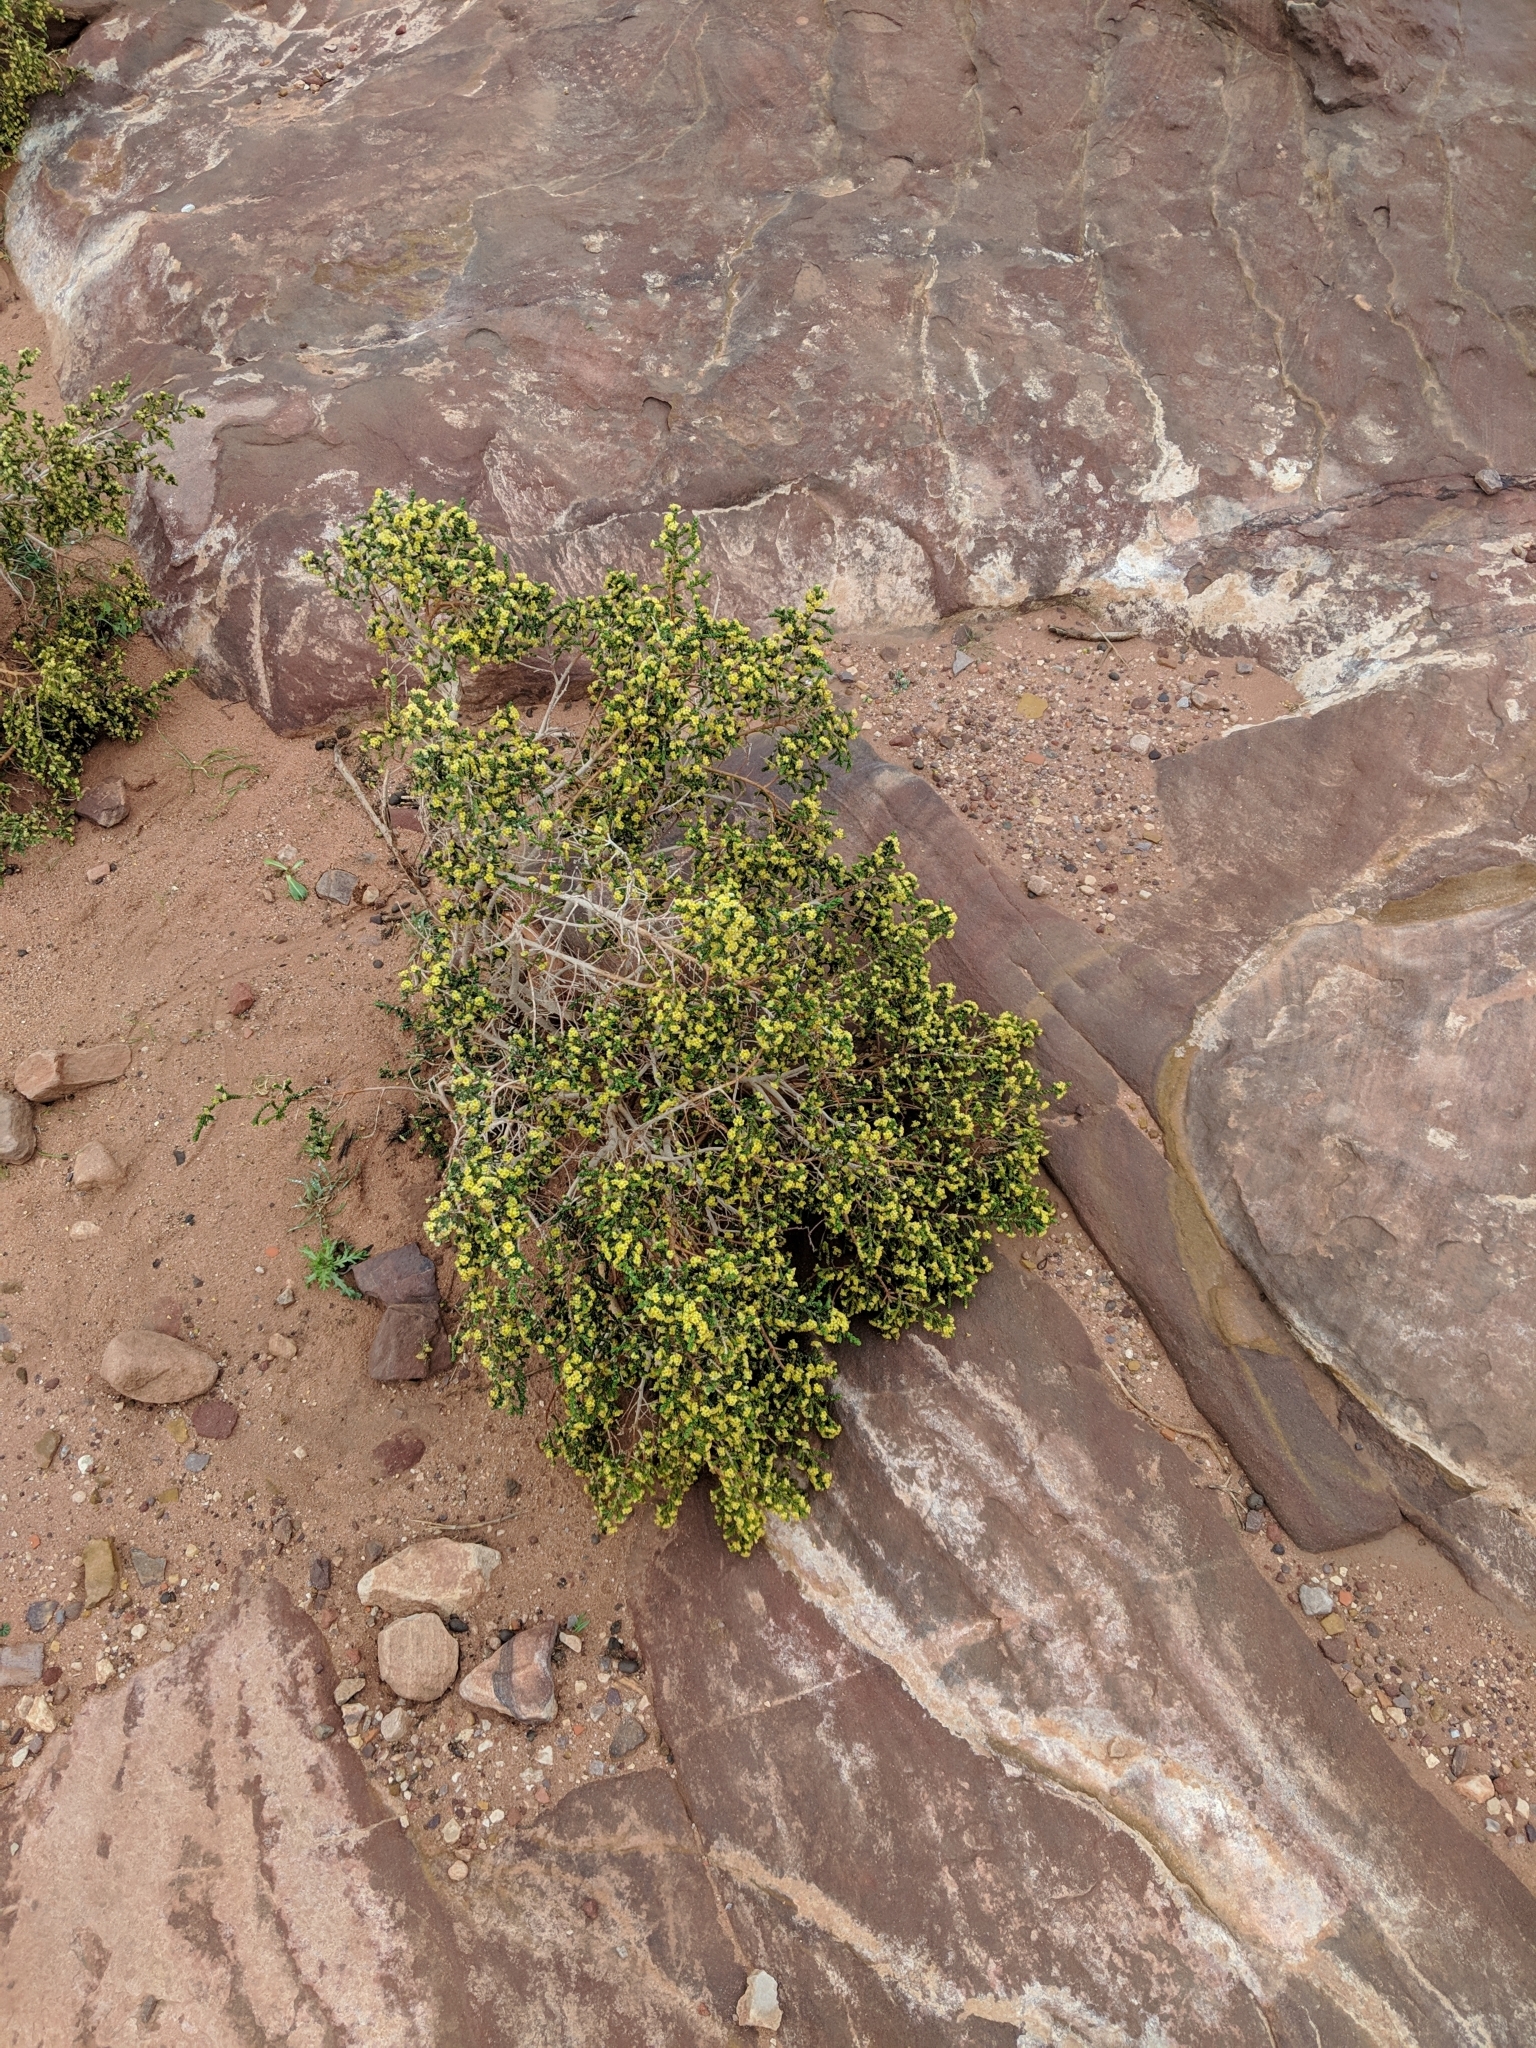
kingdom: Plantae
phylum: Tracheophyta
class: Magnoliopsida
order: Malvales
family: Thymelaeaceae
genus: Thymelaea
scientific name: Thymelaea hirsuta
